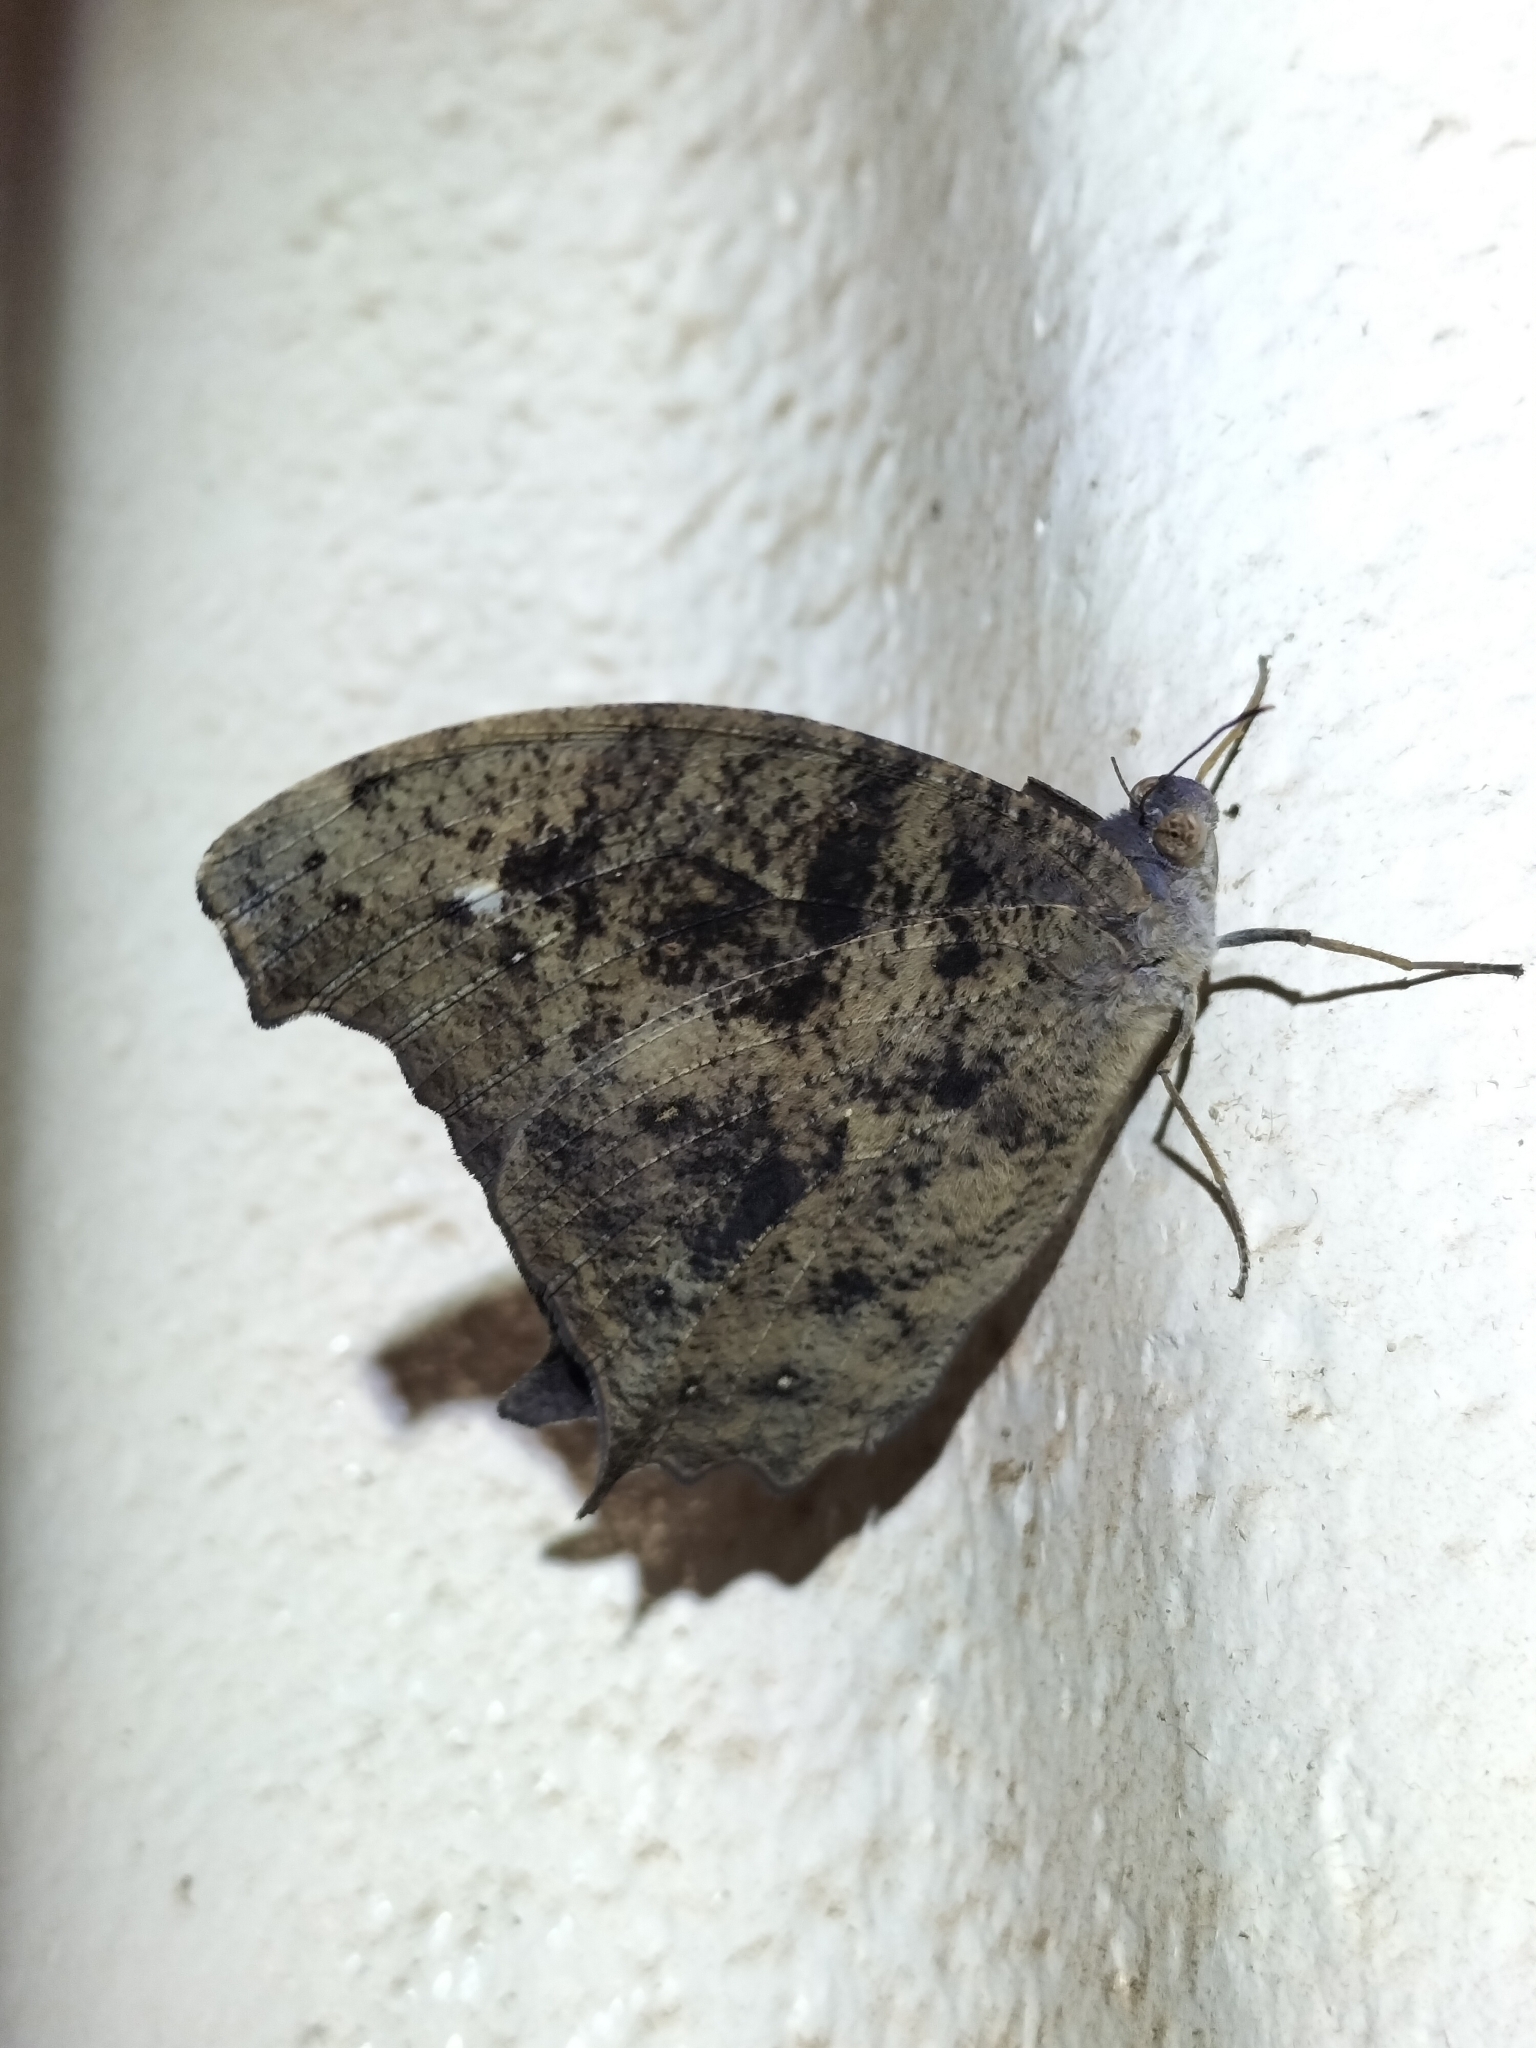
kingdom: Animalia
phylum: Arthropoda
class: Insecta
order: Lepidoptera
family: Nymphalidae
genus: Melanitis
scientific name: Melanitis leda
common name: Twilight brown
